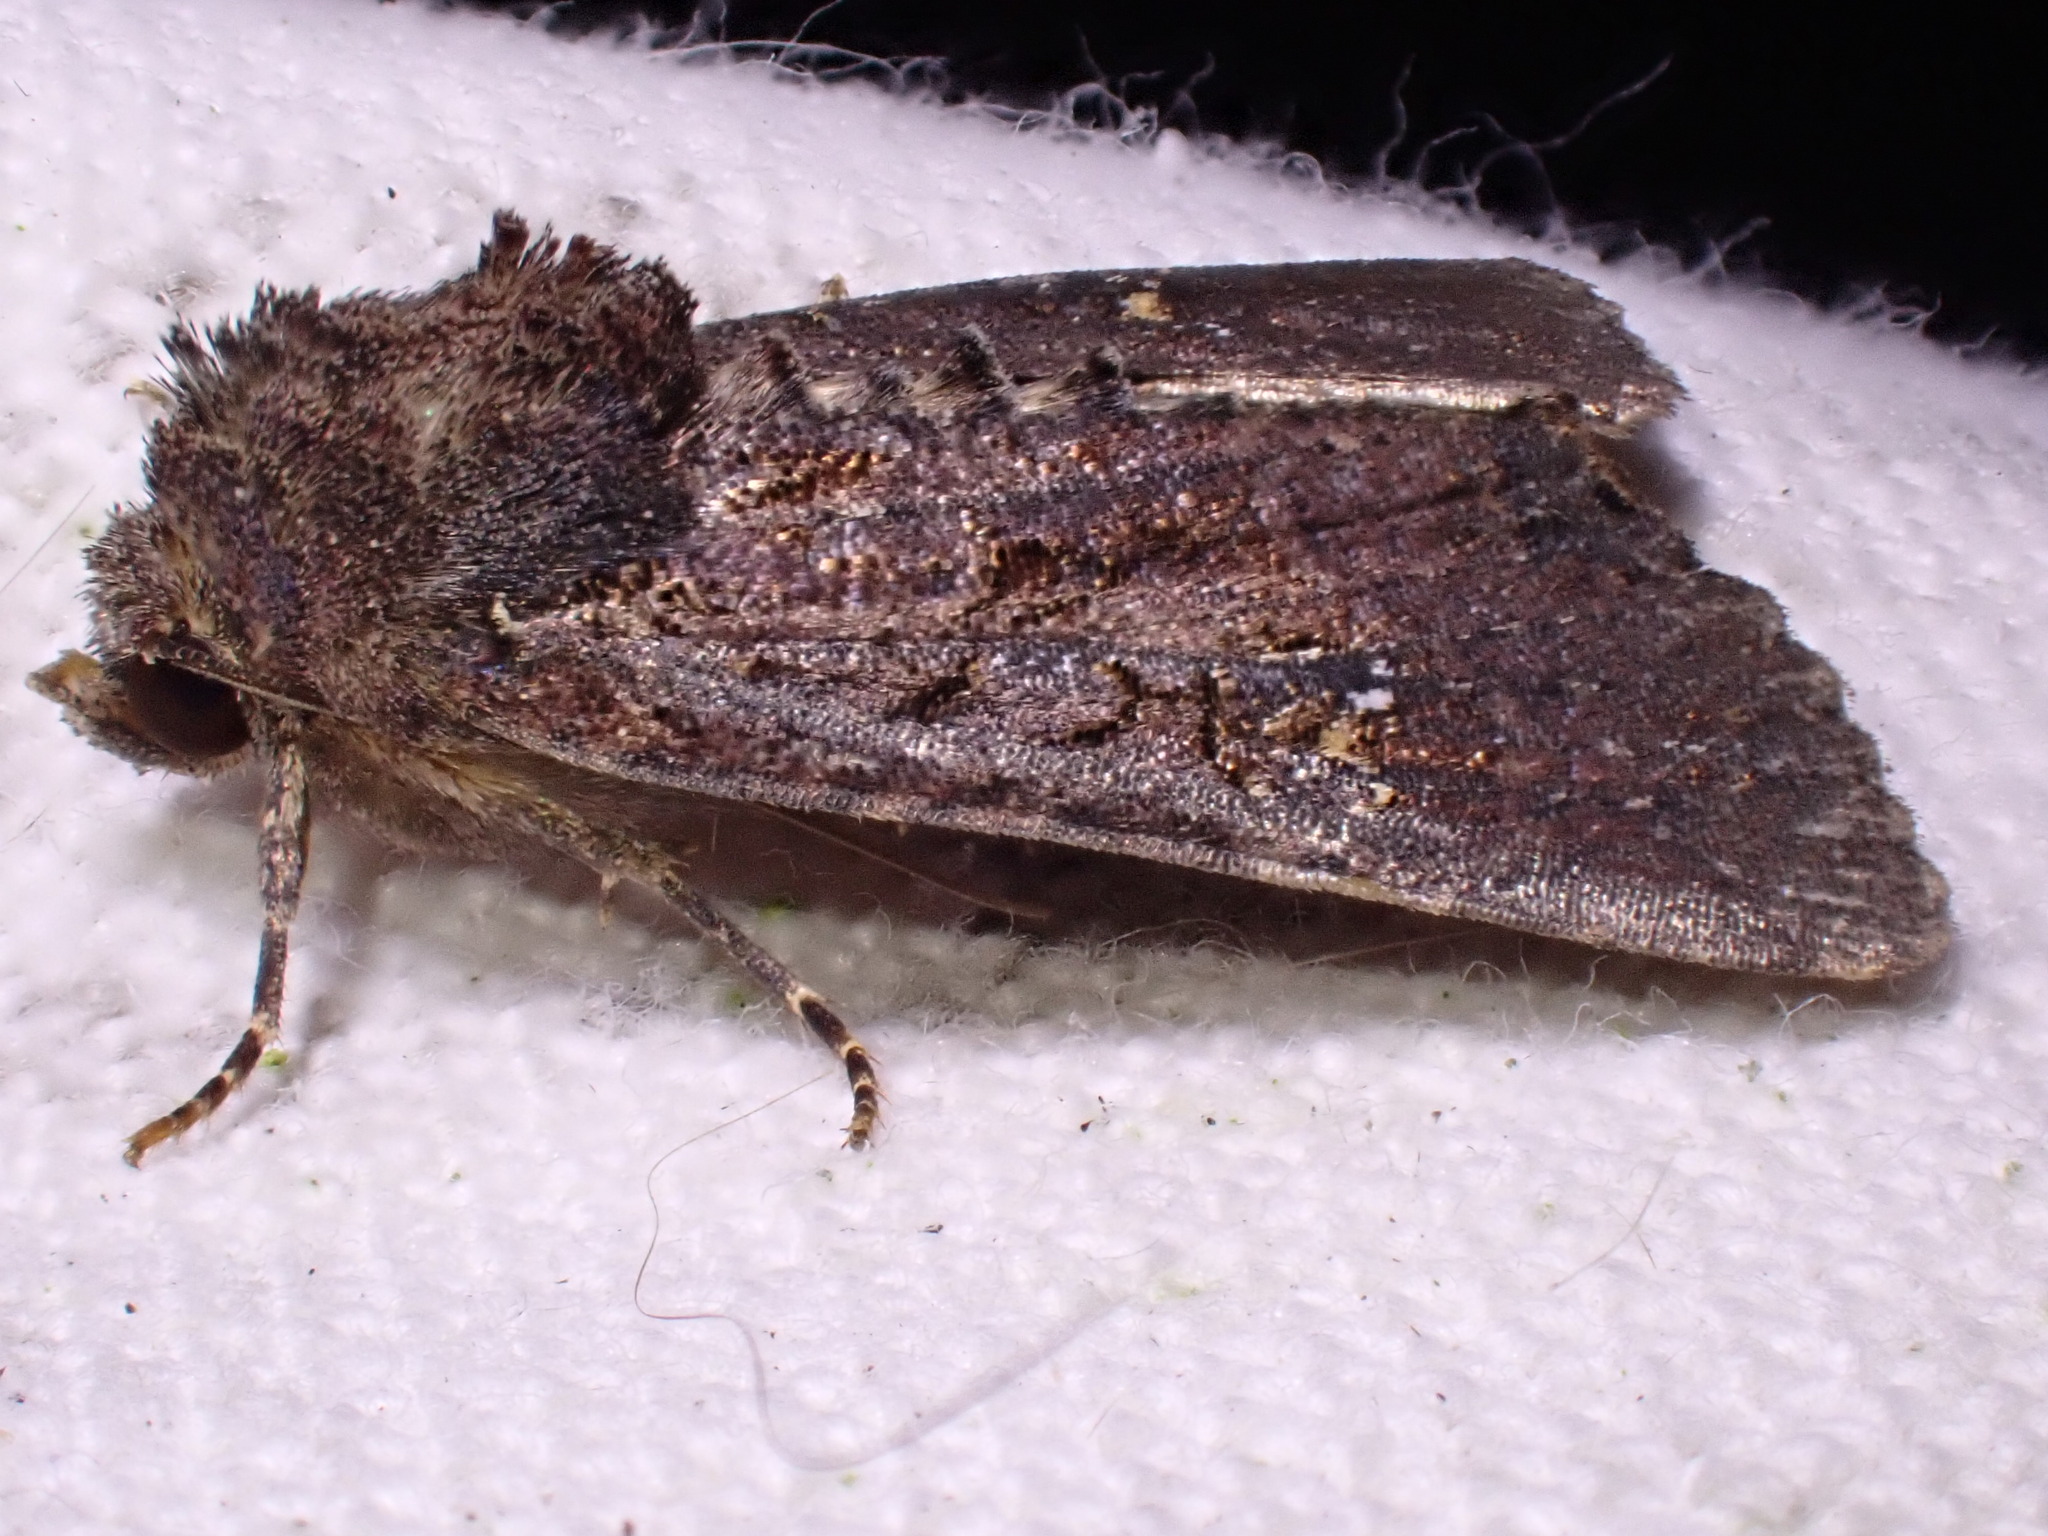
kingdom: Animalia
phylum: Arthropoda
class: Insecta
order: Lepidoptera
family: Noctuidae
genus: Mesapamea
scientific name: Mesapamea
